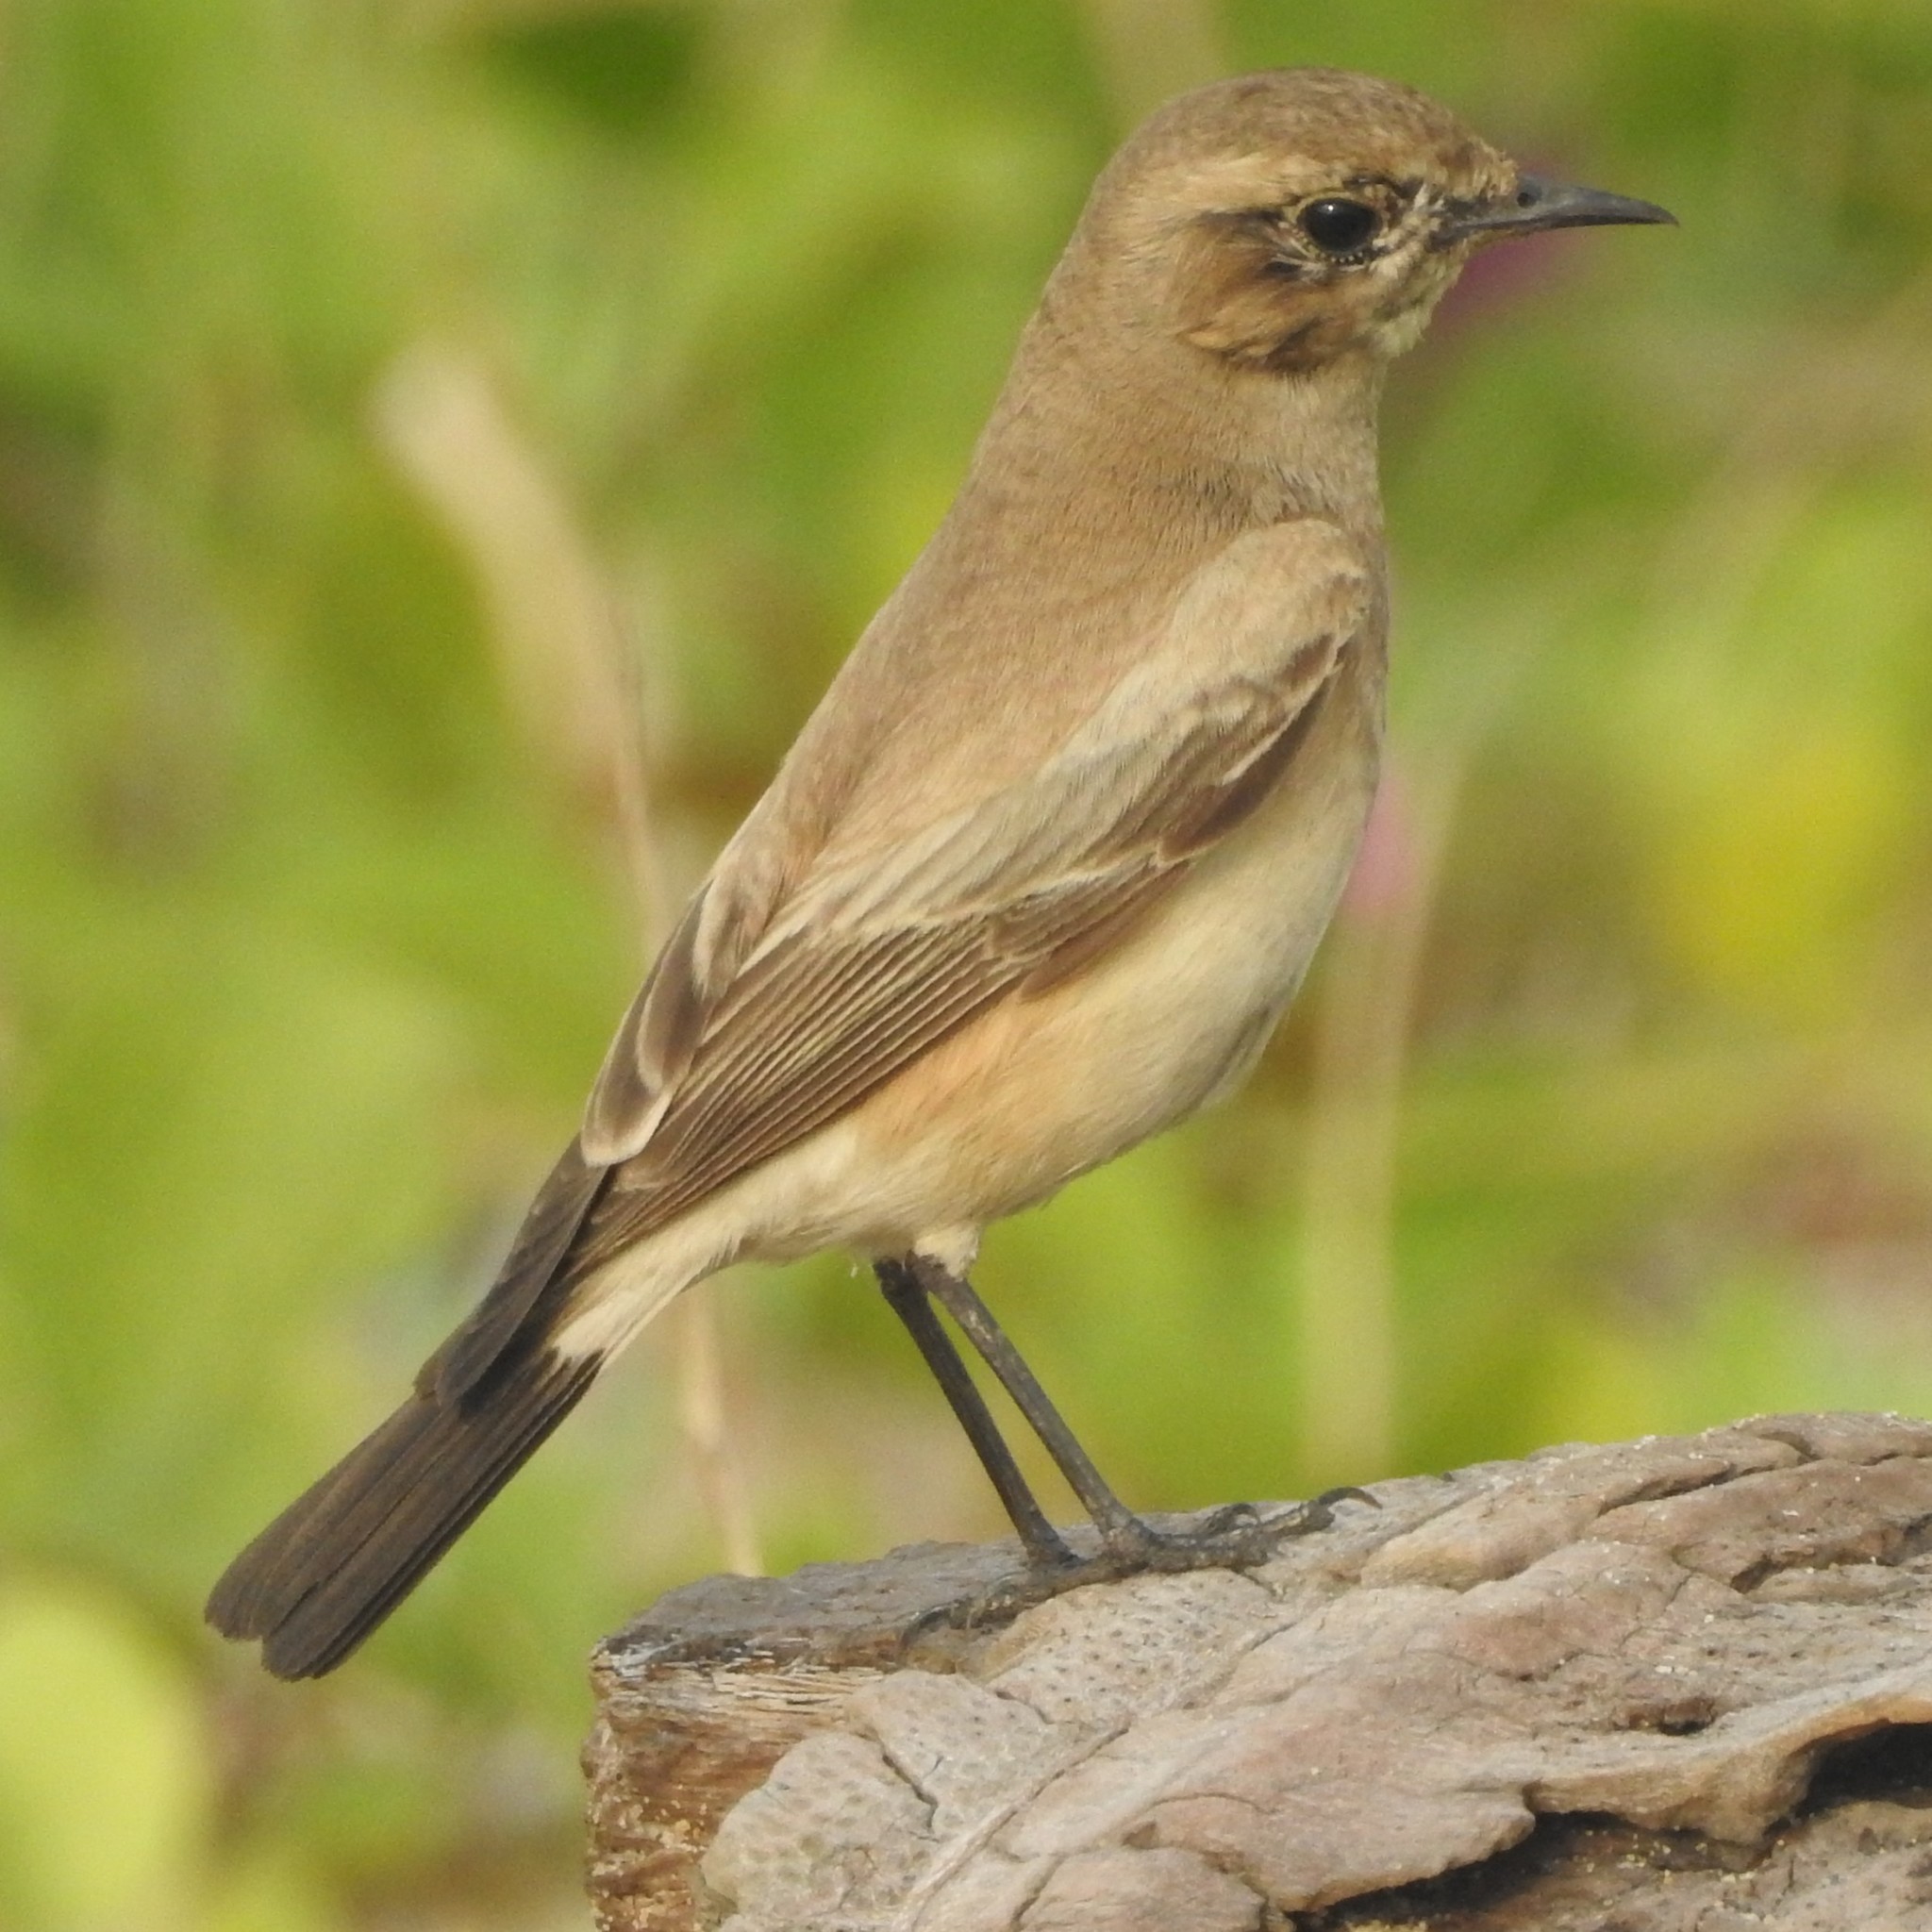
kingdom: Animalia
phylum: Chordata
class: Aves
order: Passeriformes
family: Muscicapidae
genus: Oenanthe
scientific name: Oenanthe deserti
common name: Desert wheatear
